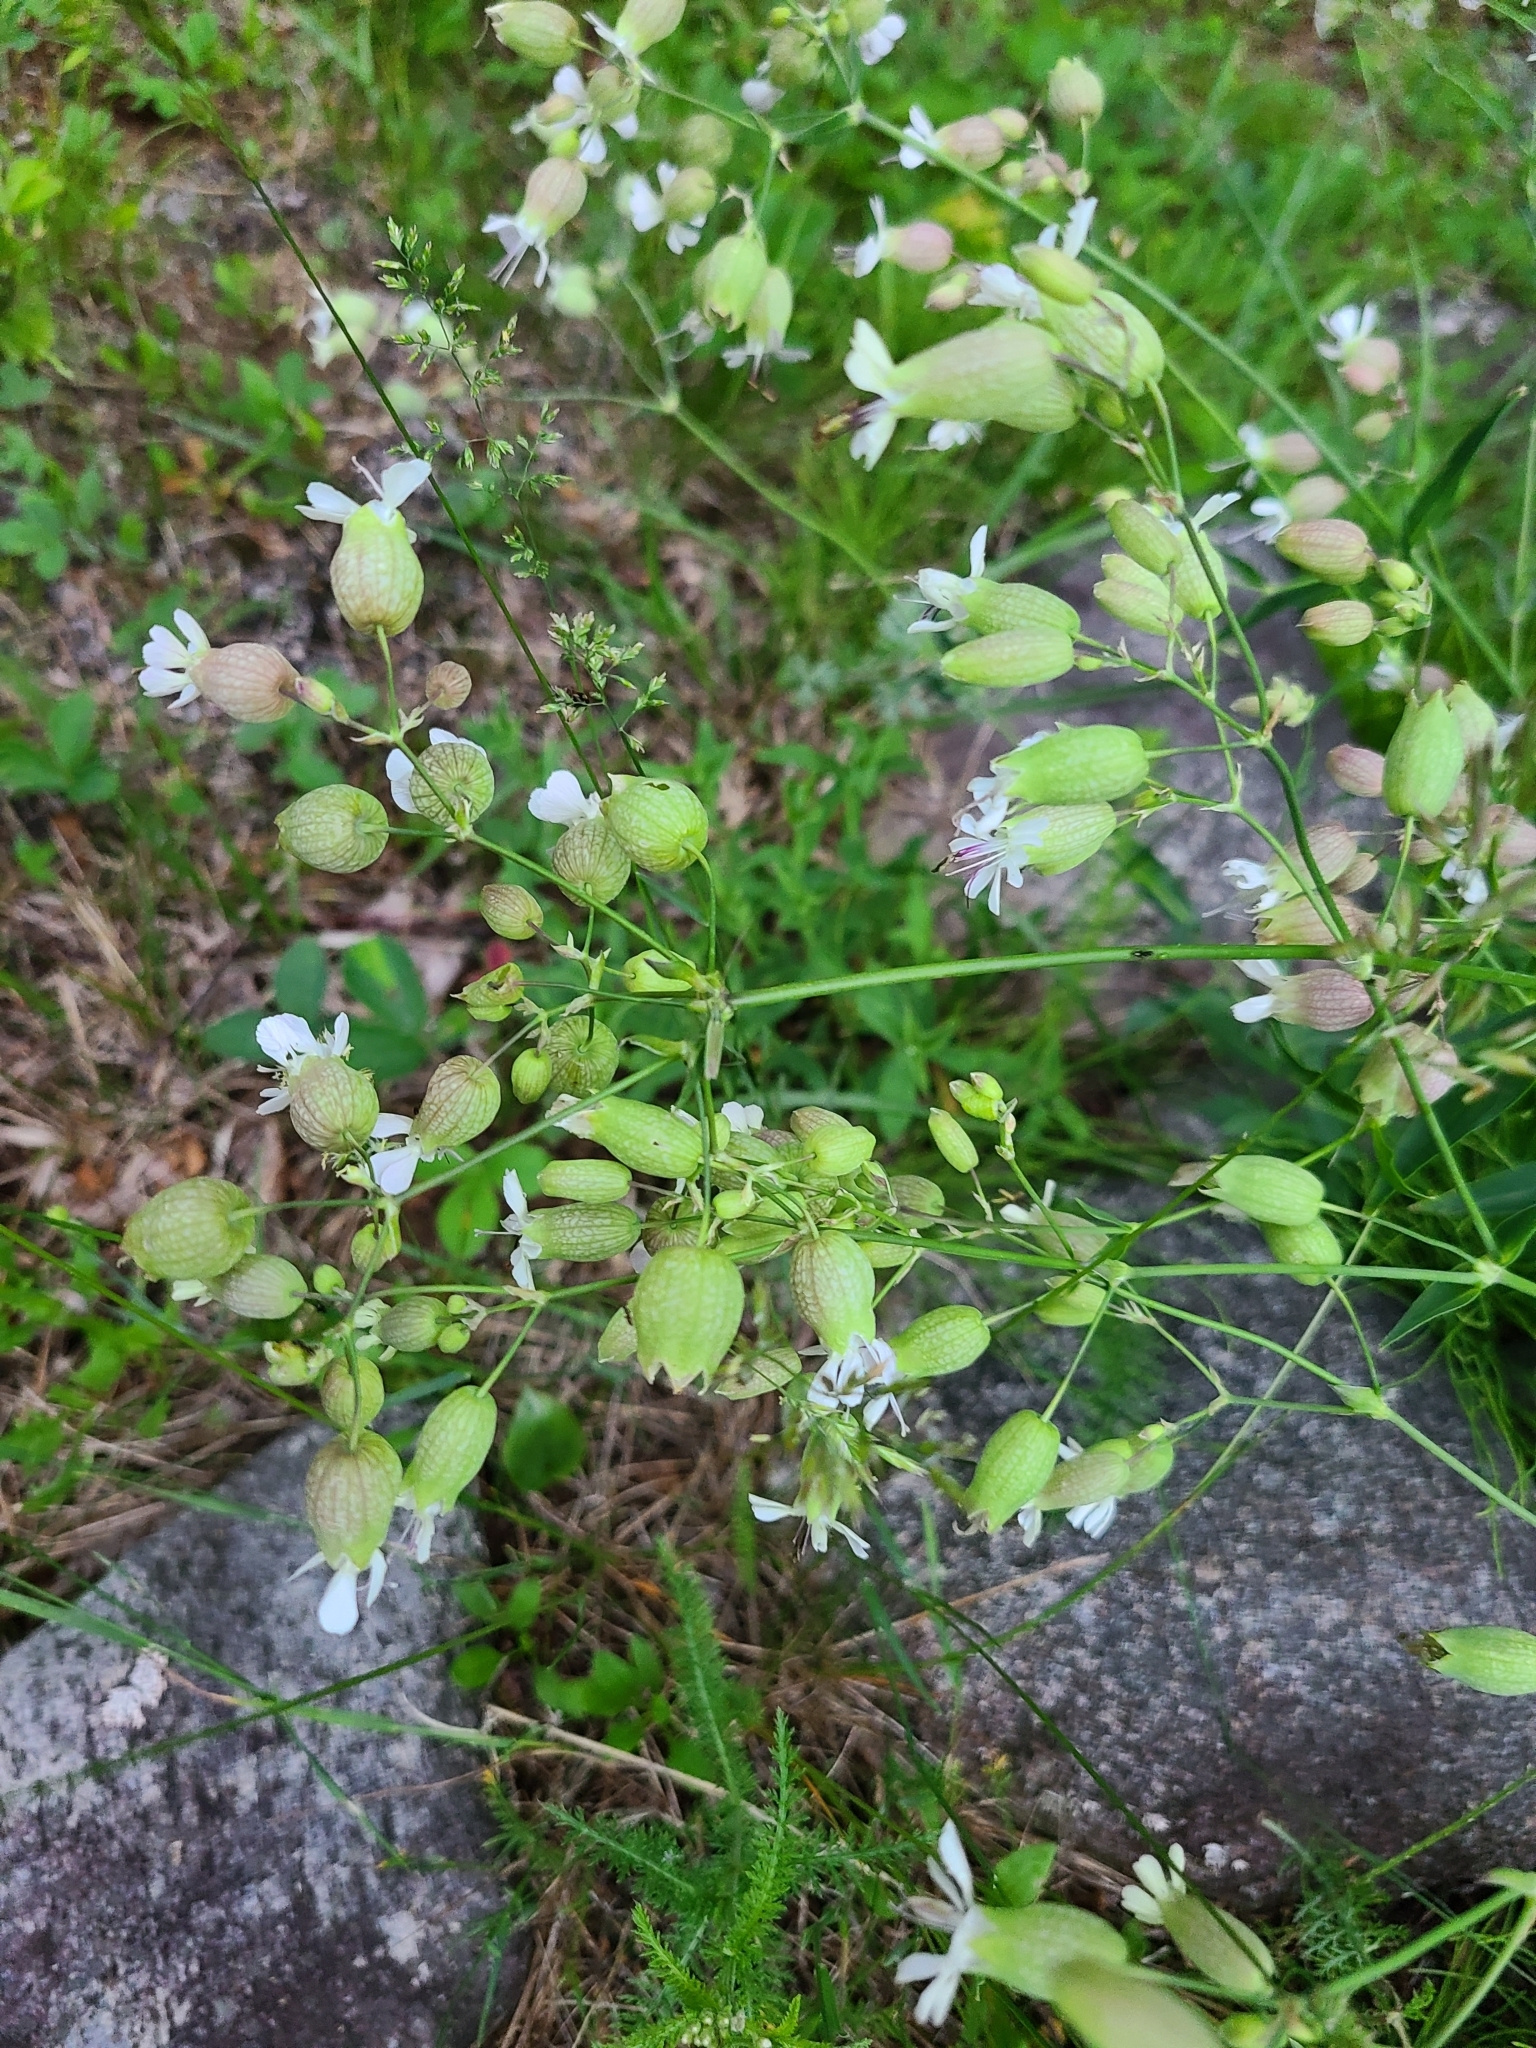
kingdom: Plantae
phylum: Tracheophyta
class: Magnoliopsida
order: Caryophyllales
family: Caryophyllaceae
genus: Silene
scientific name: Silene vulgaris
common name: Bladder campion
